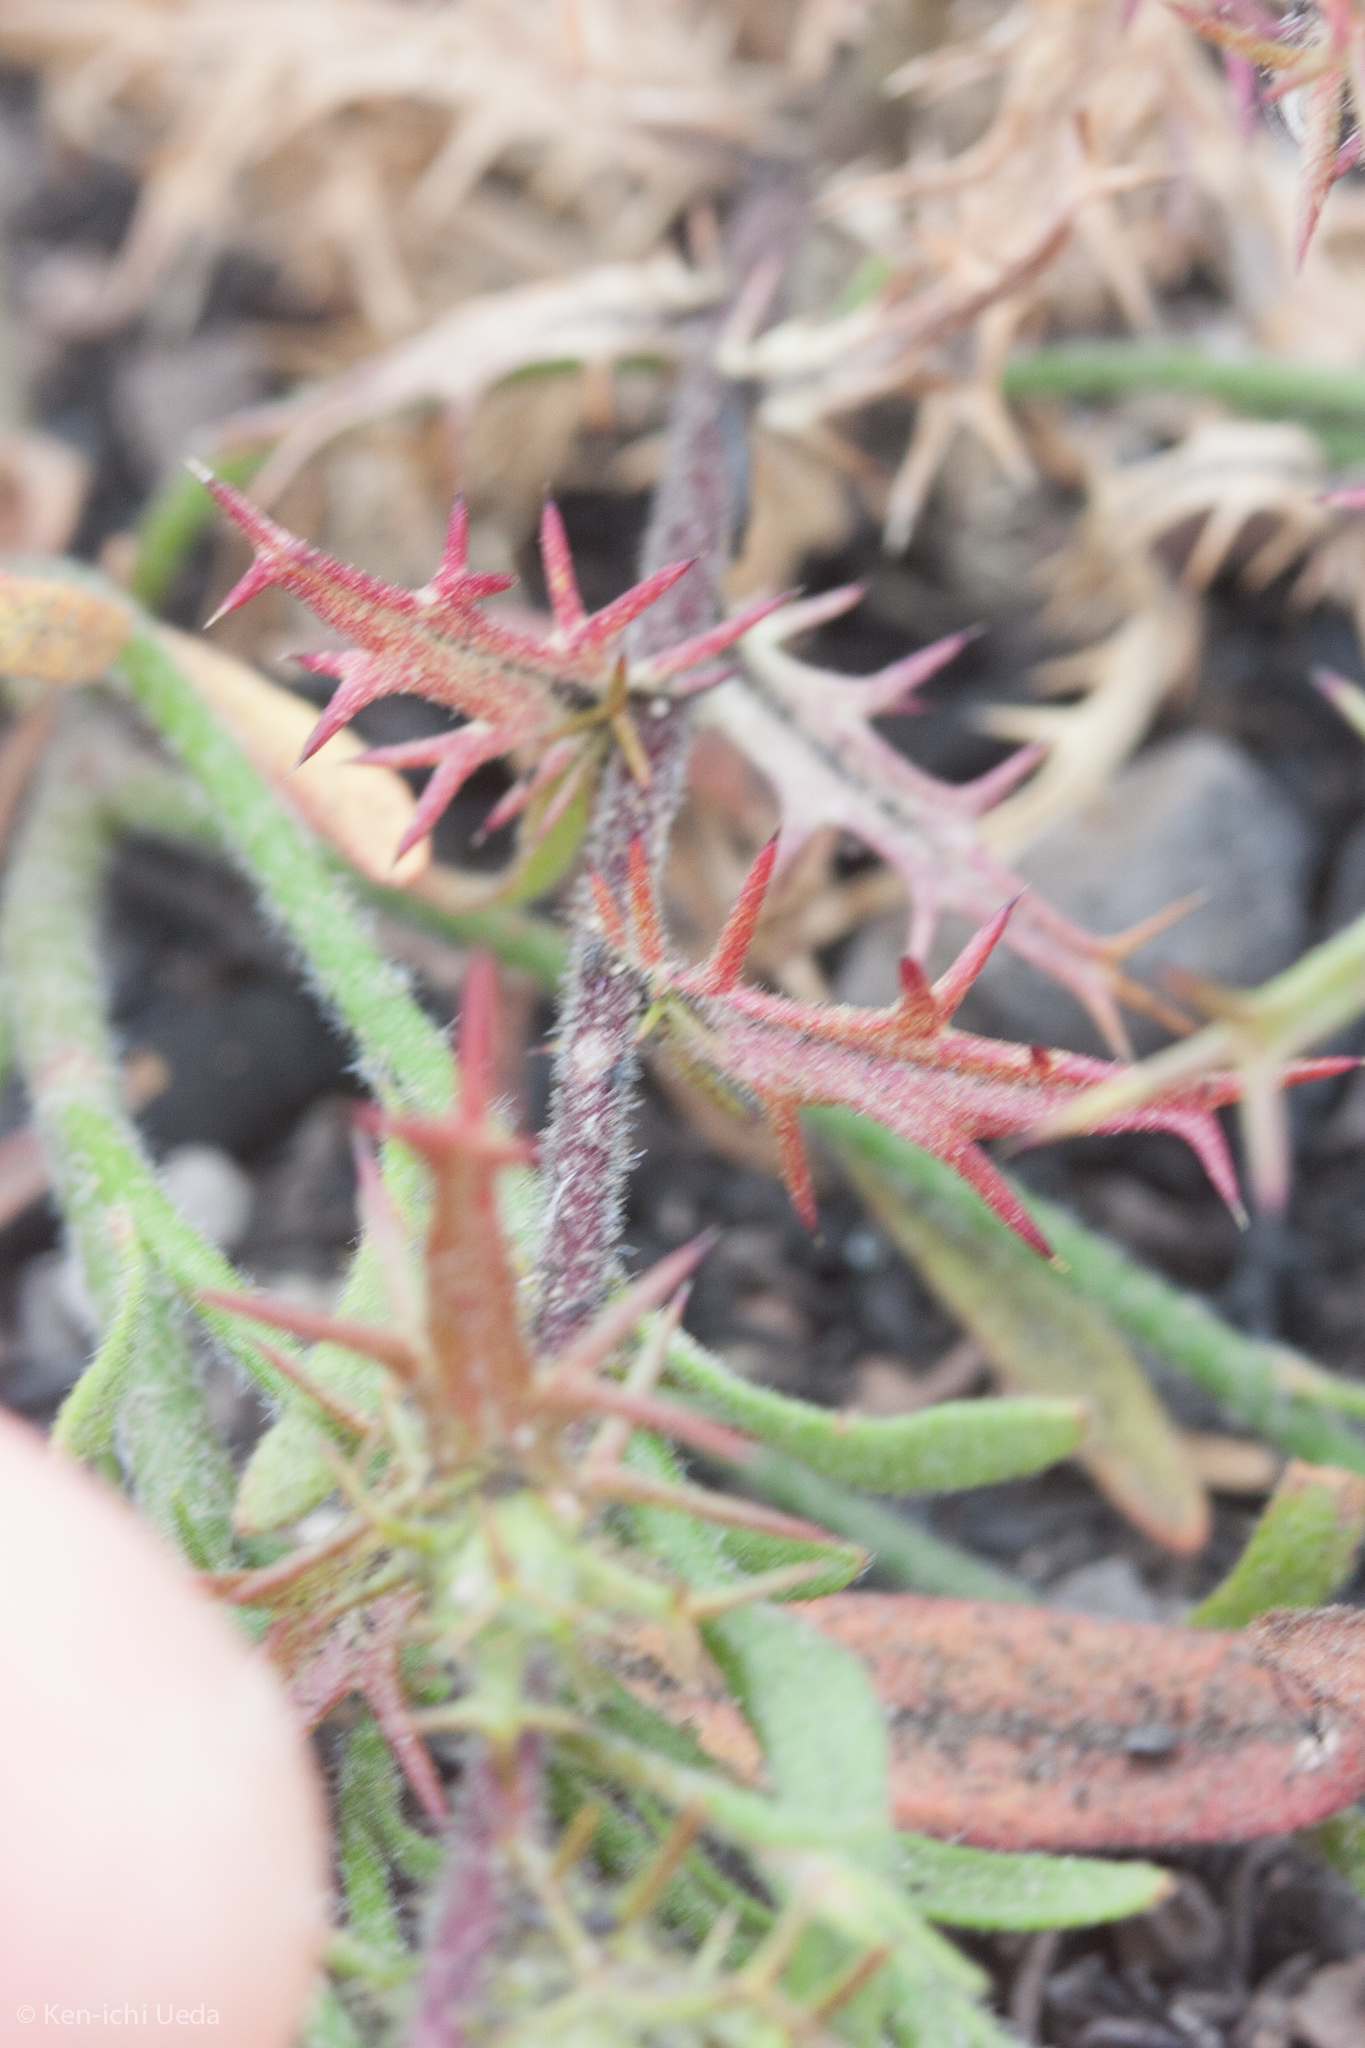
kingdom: Plantae
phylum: Tracheophyta
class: Magnoliopsida
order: Ericales
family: Polemoniaceae
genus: Navarretia
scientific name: Navarretia hamata
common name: Hooked navarretia
